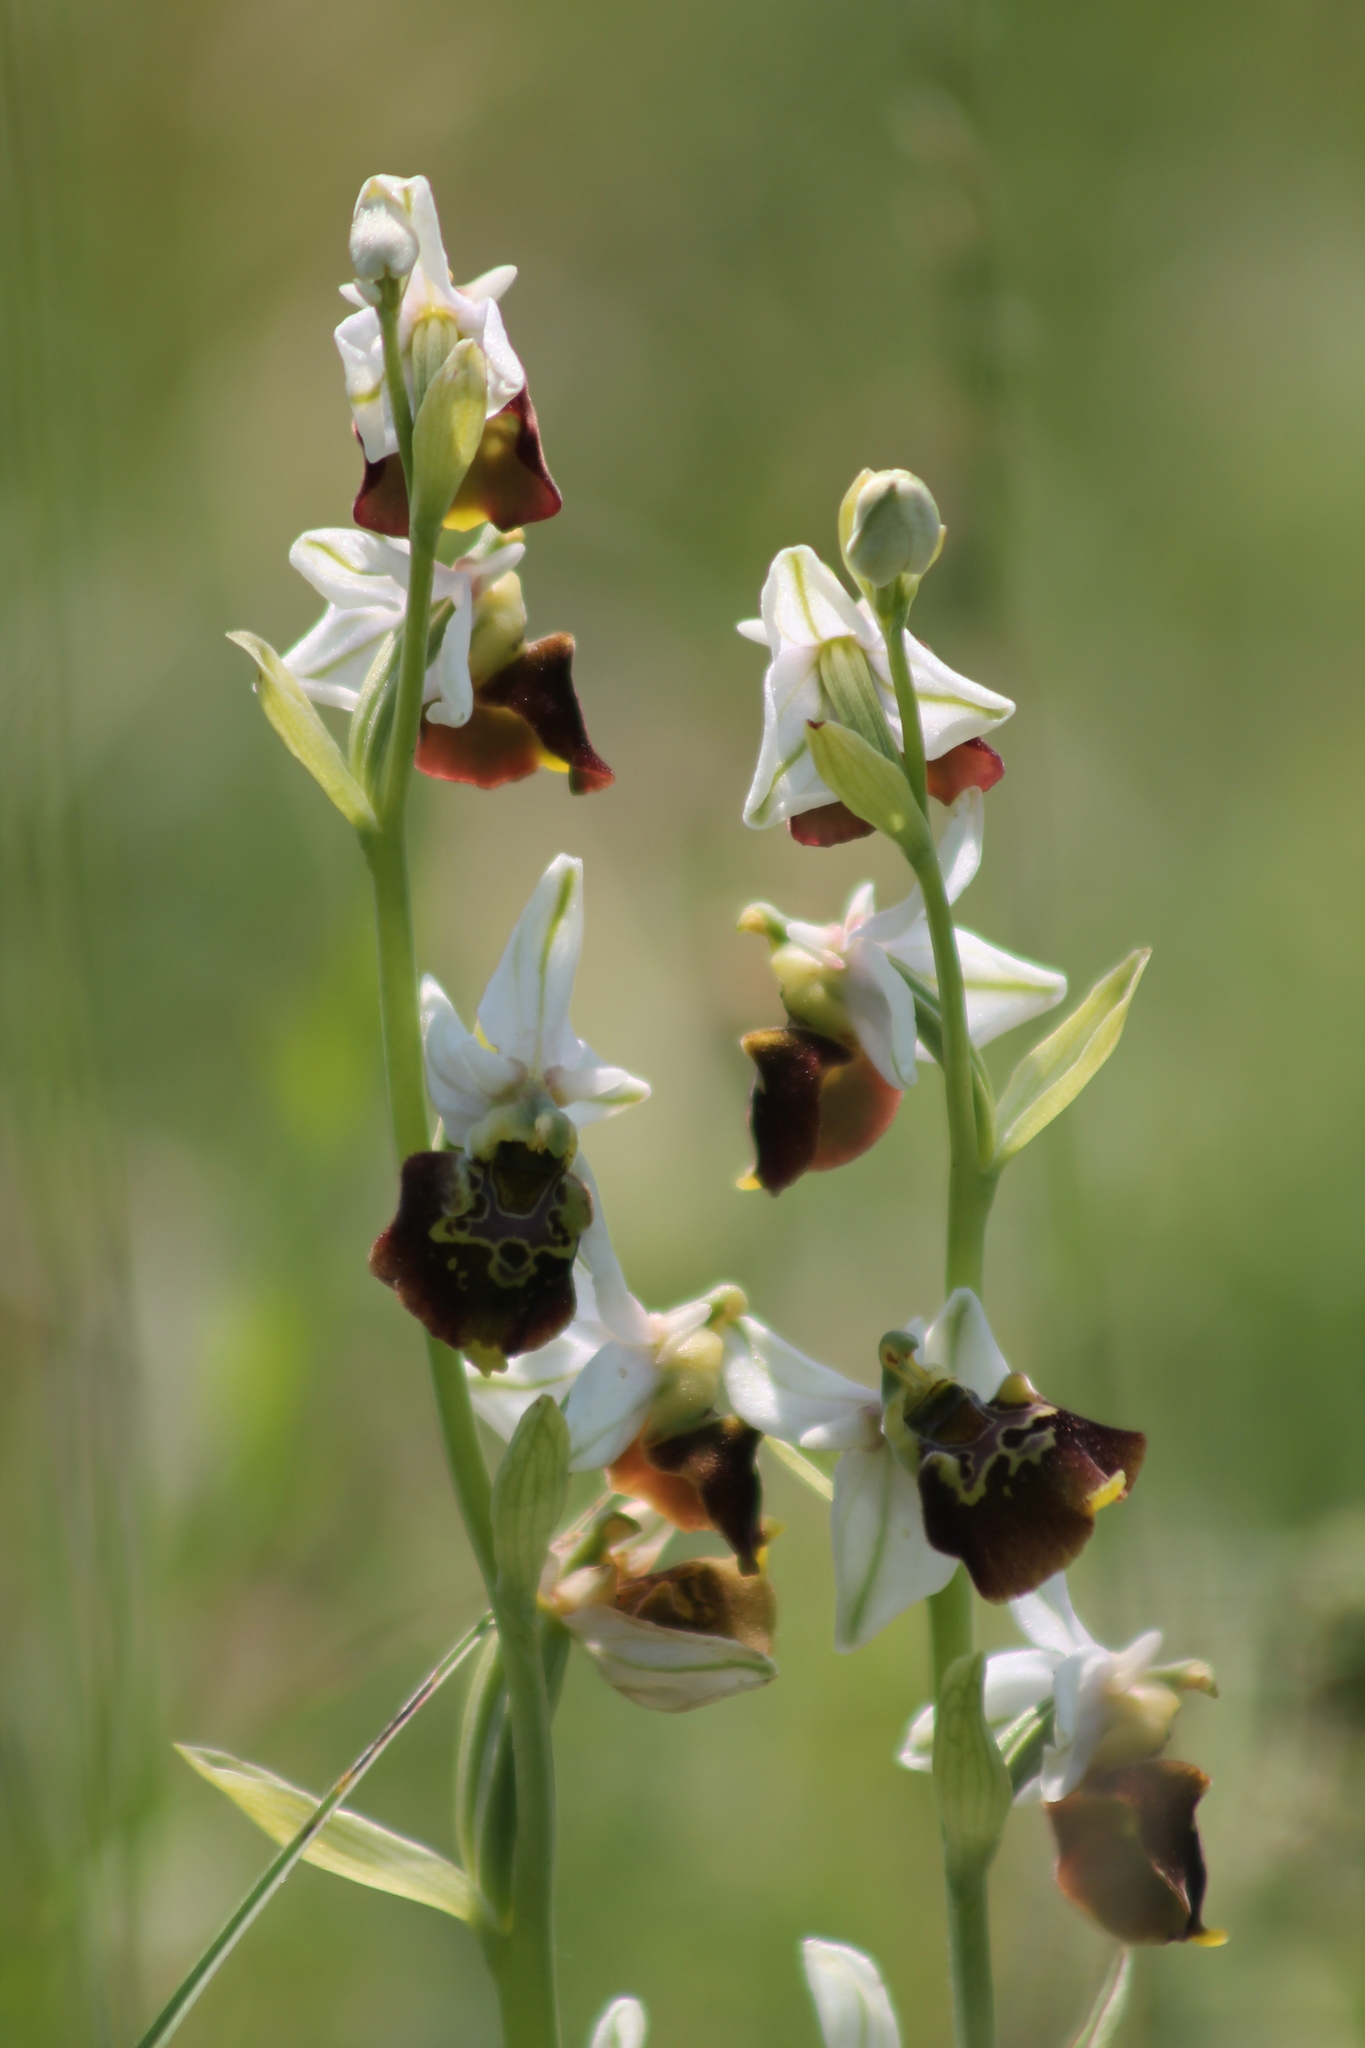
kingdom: Plantae
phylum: Tracheophyta
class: Liliopsida
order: Asparagales
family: Orchidaceae
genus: Ophrys
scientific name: Ophrys holosericea
